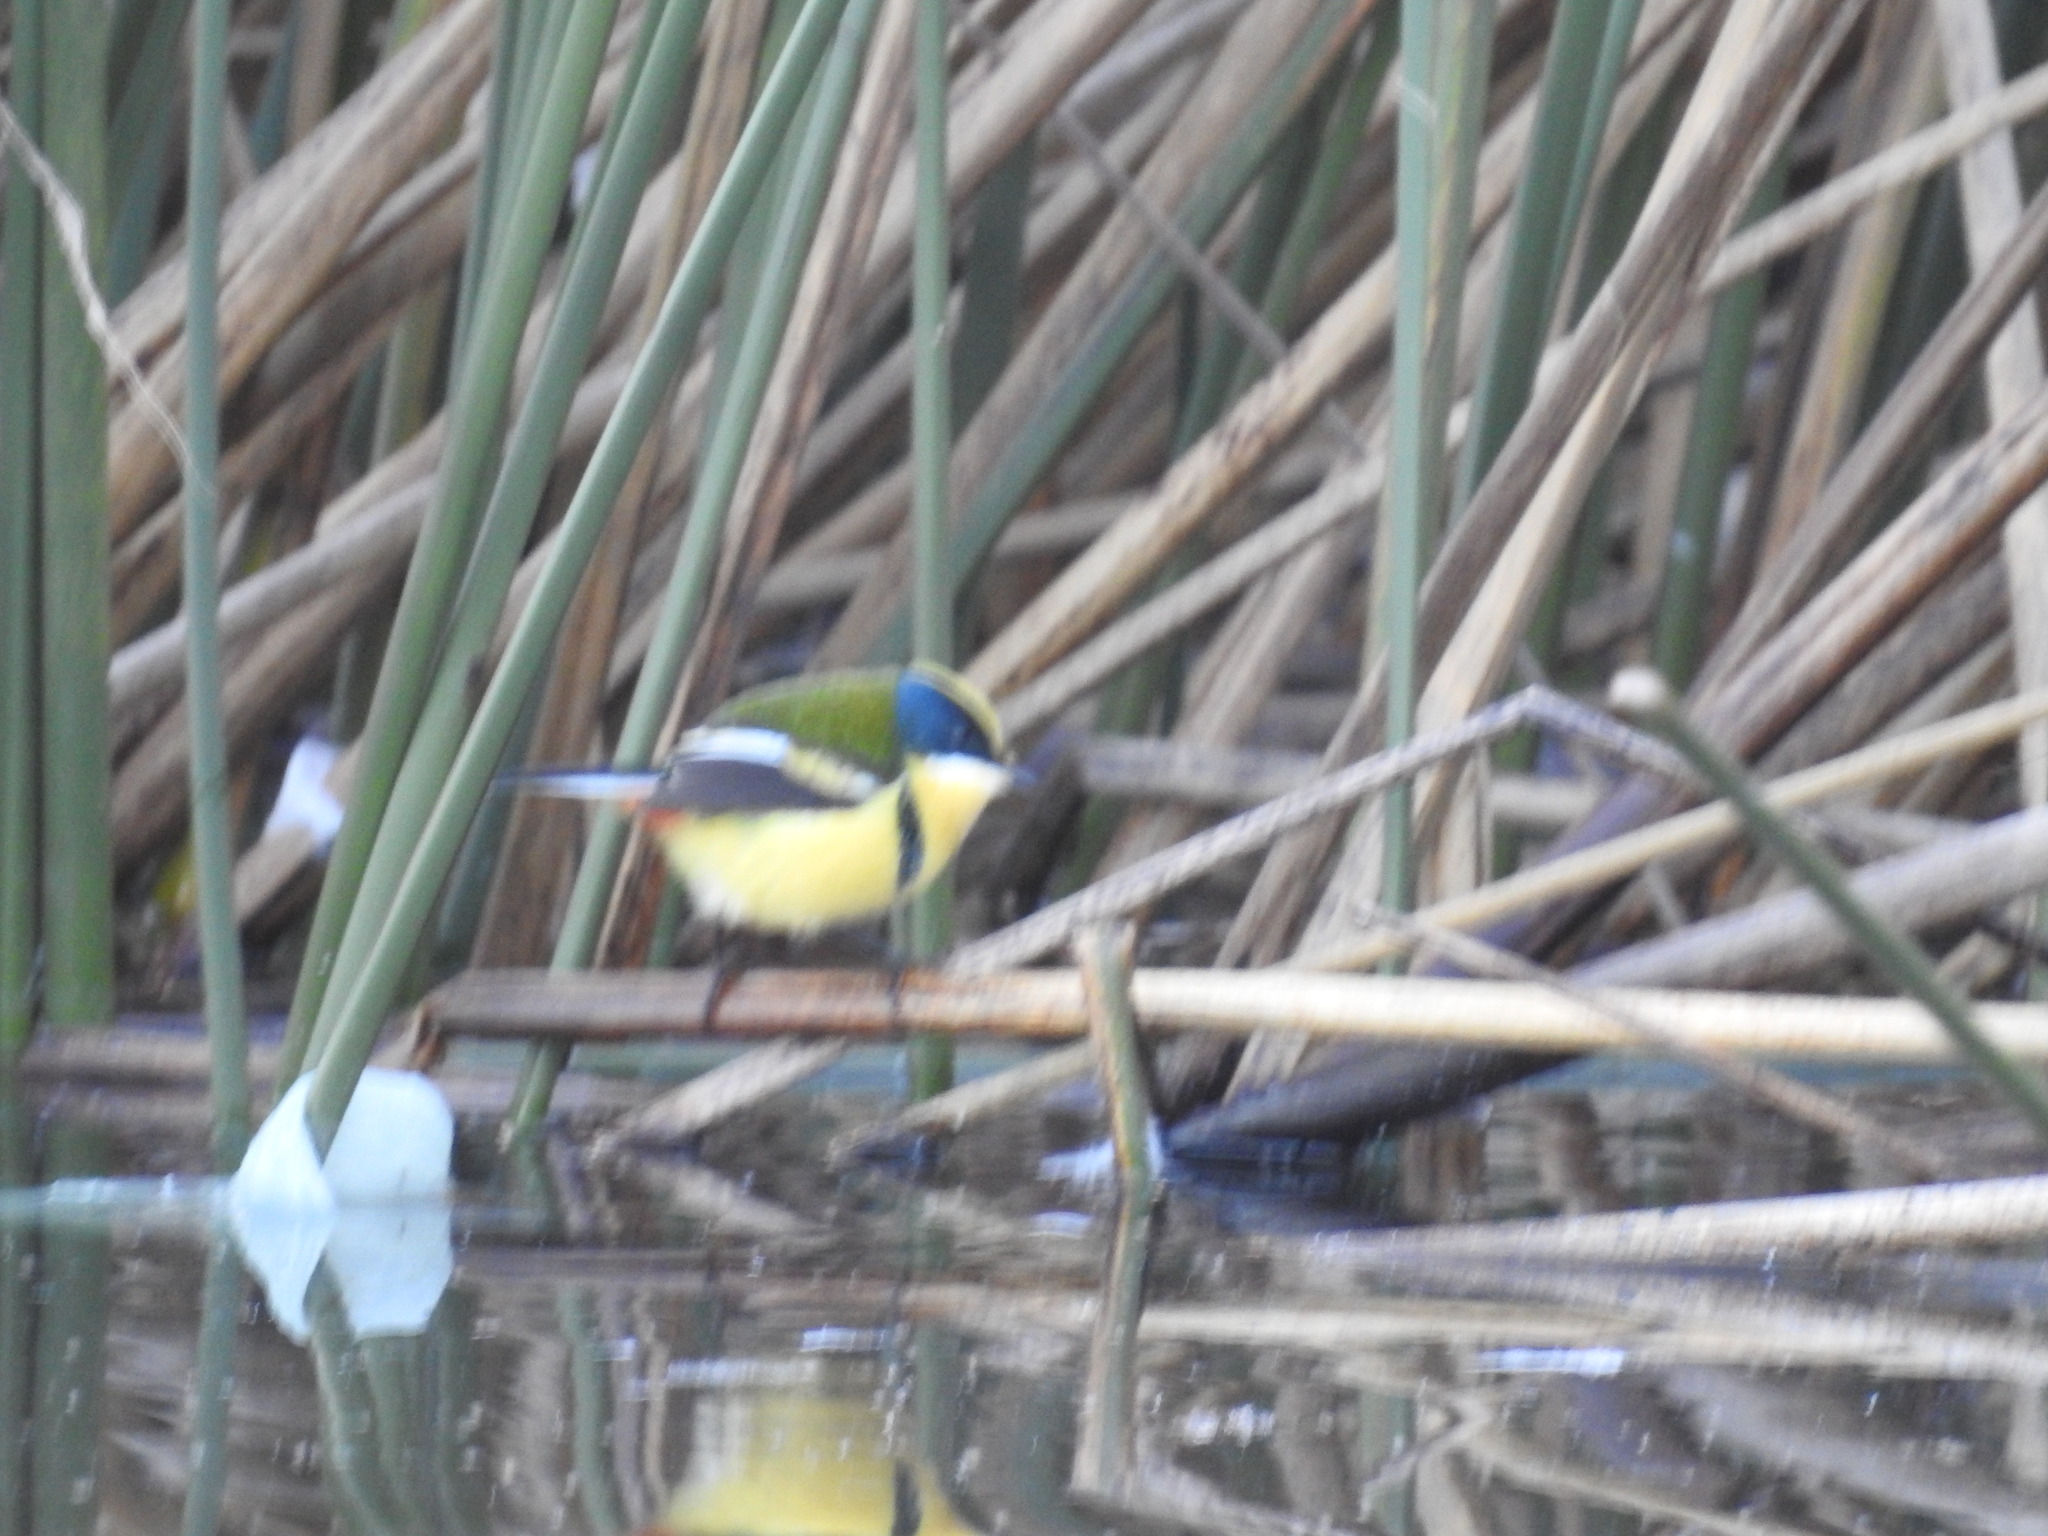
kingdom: Animalia
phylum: Chordata
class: Aves
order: Passeriformes
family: Tyrannidae
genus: Tachuris
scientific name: Tachuris rubrigastra
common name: Many-colored rush tyrant
